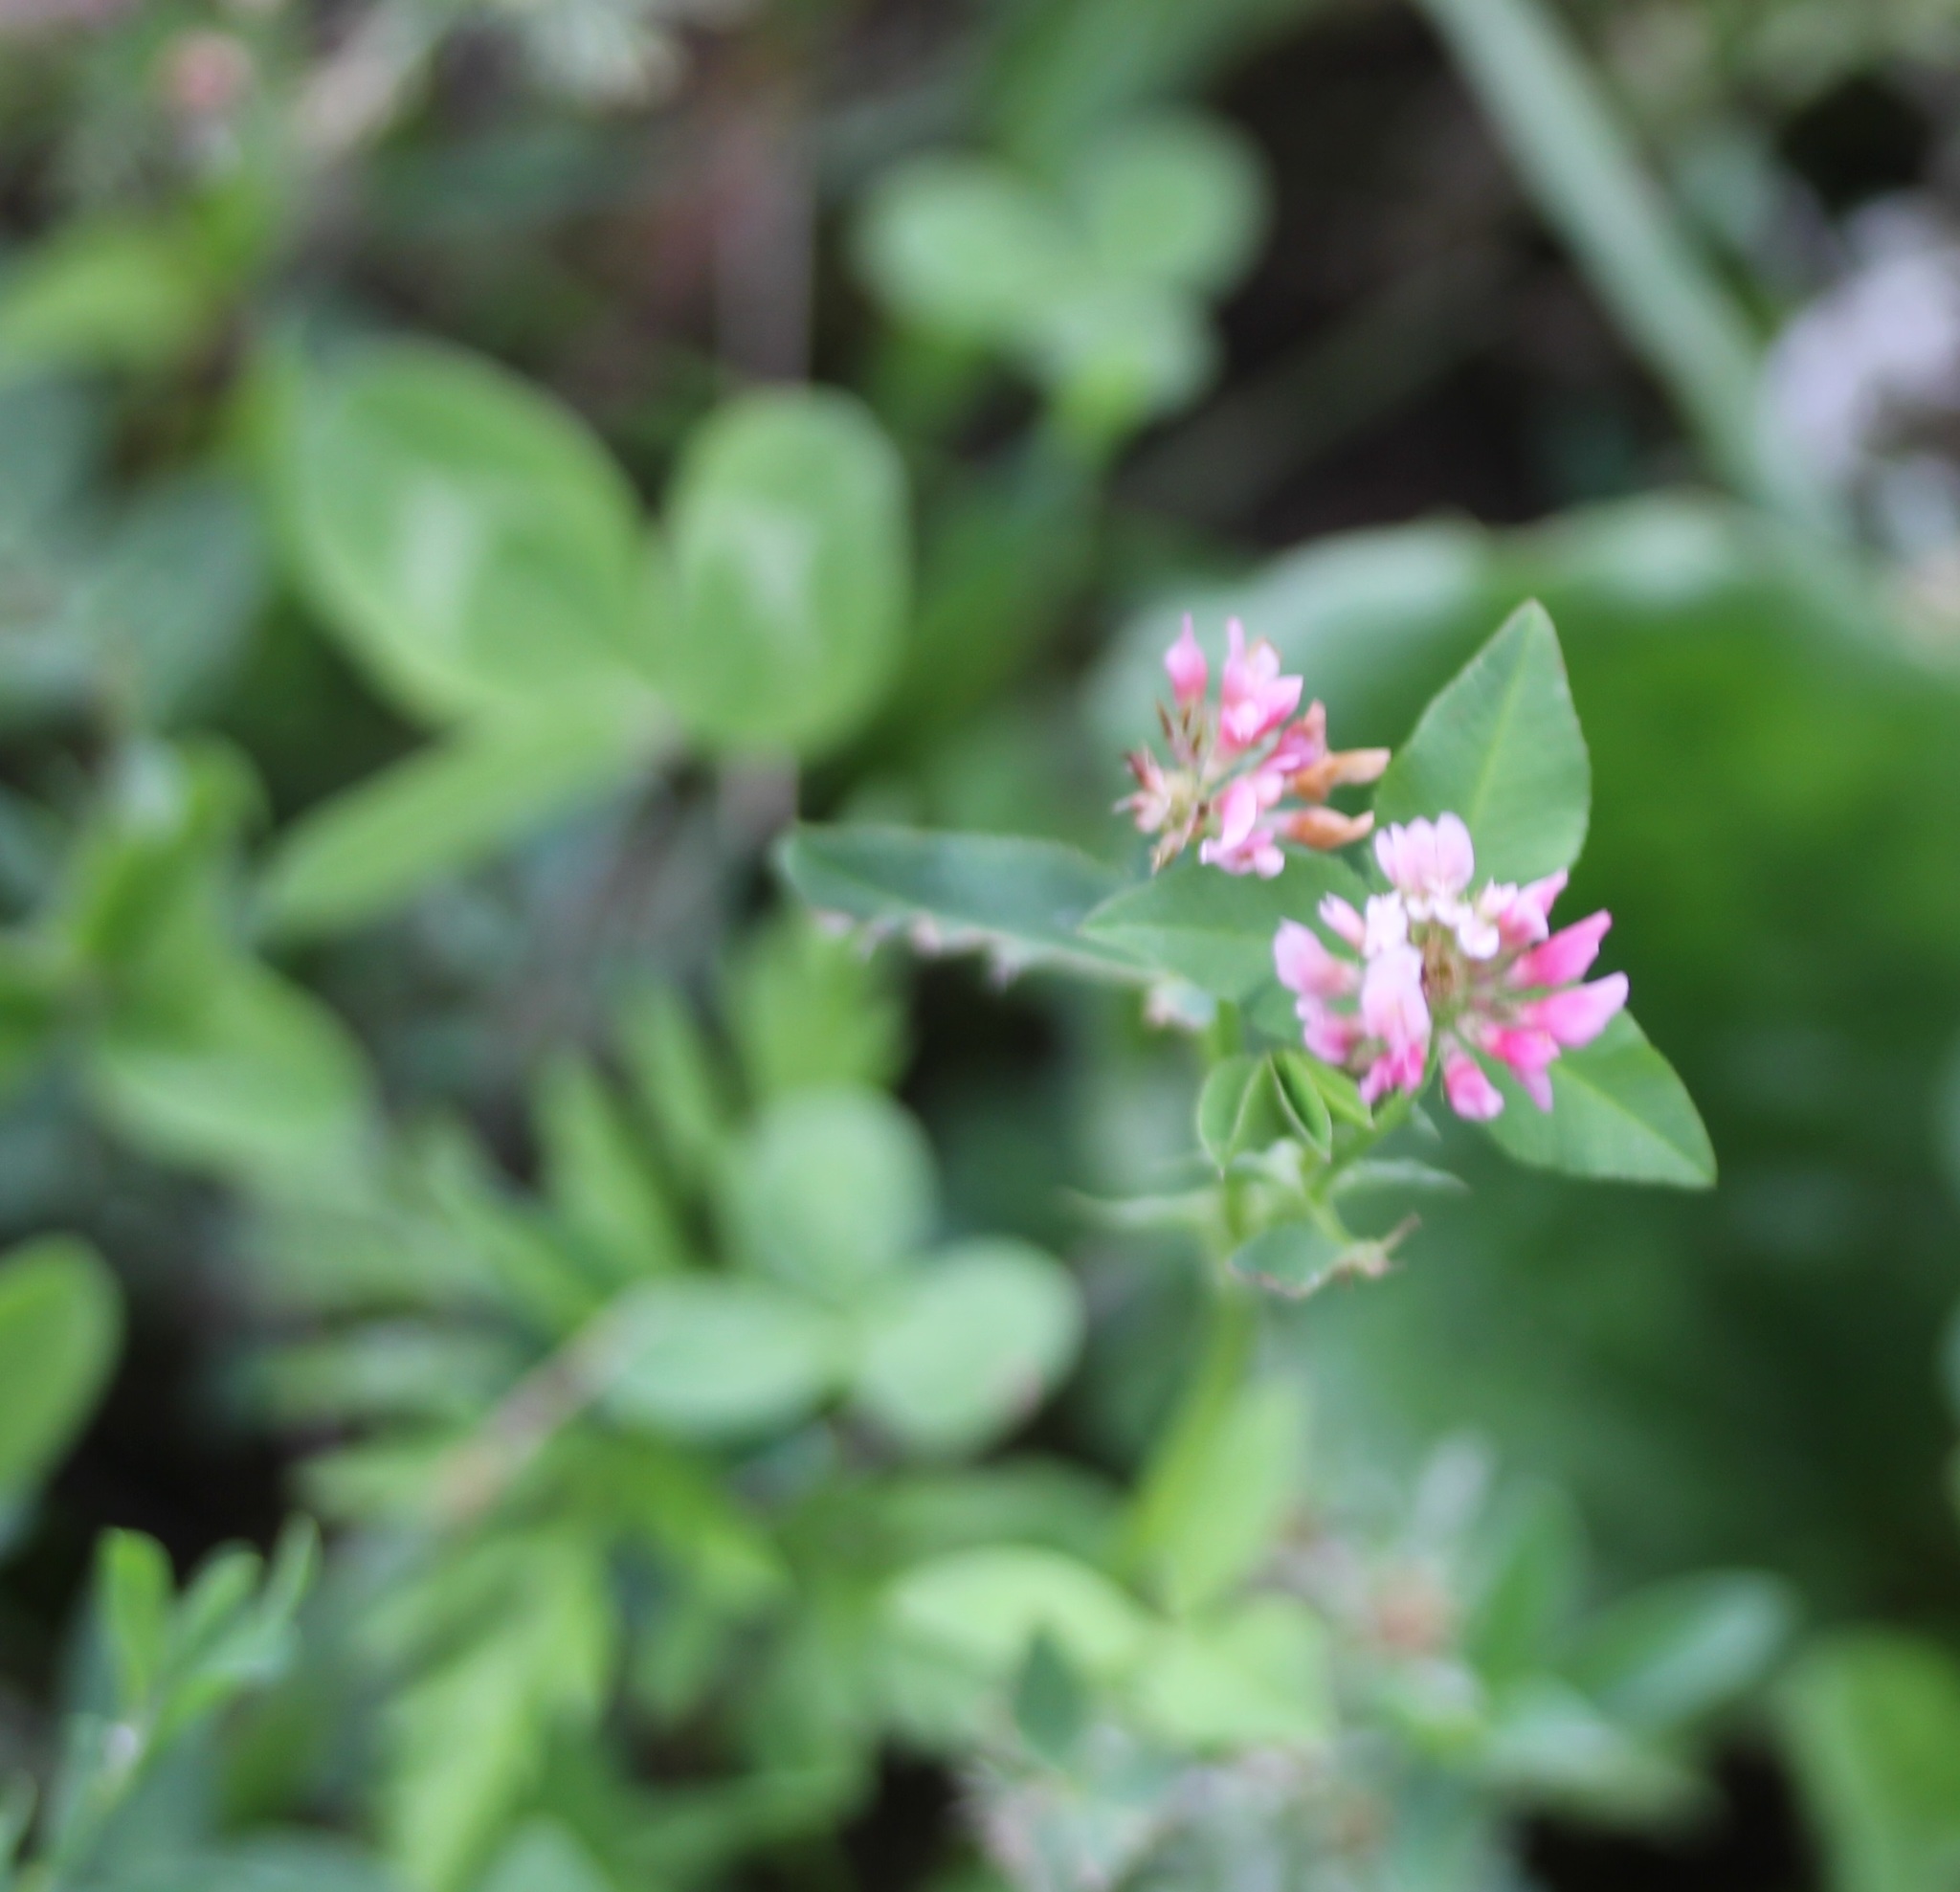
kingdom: Plantae
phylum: Tracheophyta
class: Magnoliopsida
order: Fabales
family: Fabaceae
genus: Trifolium
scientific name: Trifolium hybridum
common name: Alsike clover
